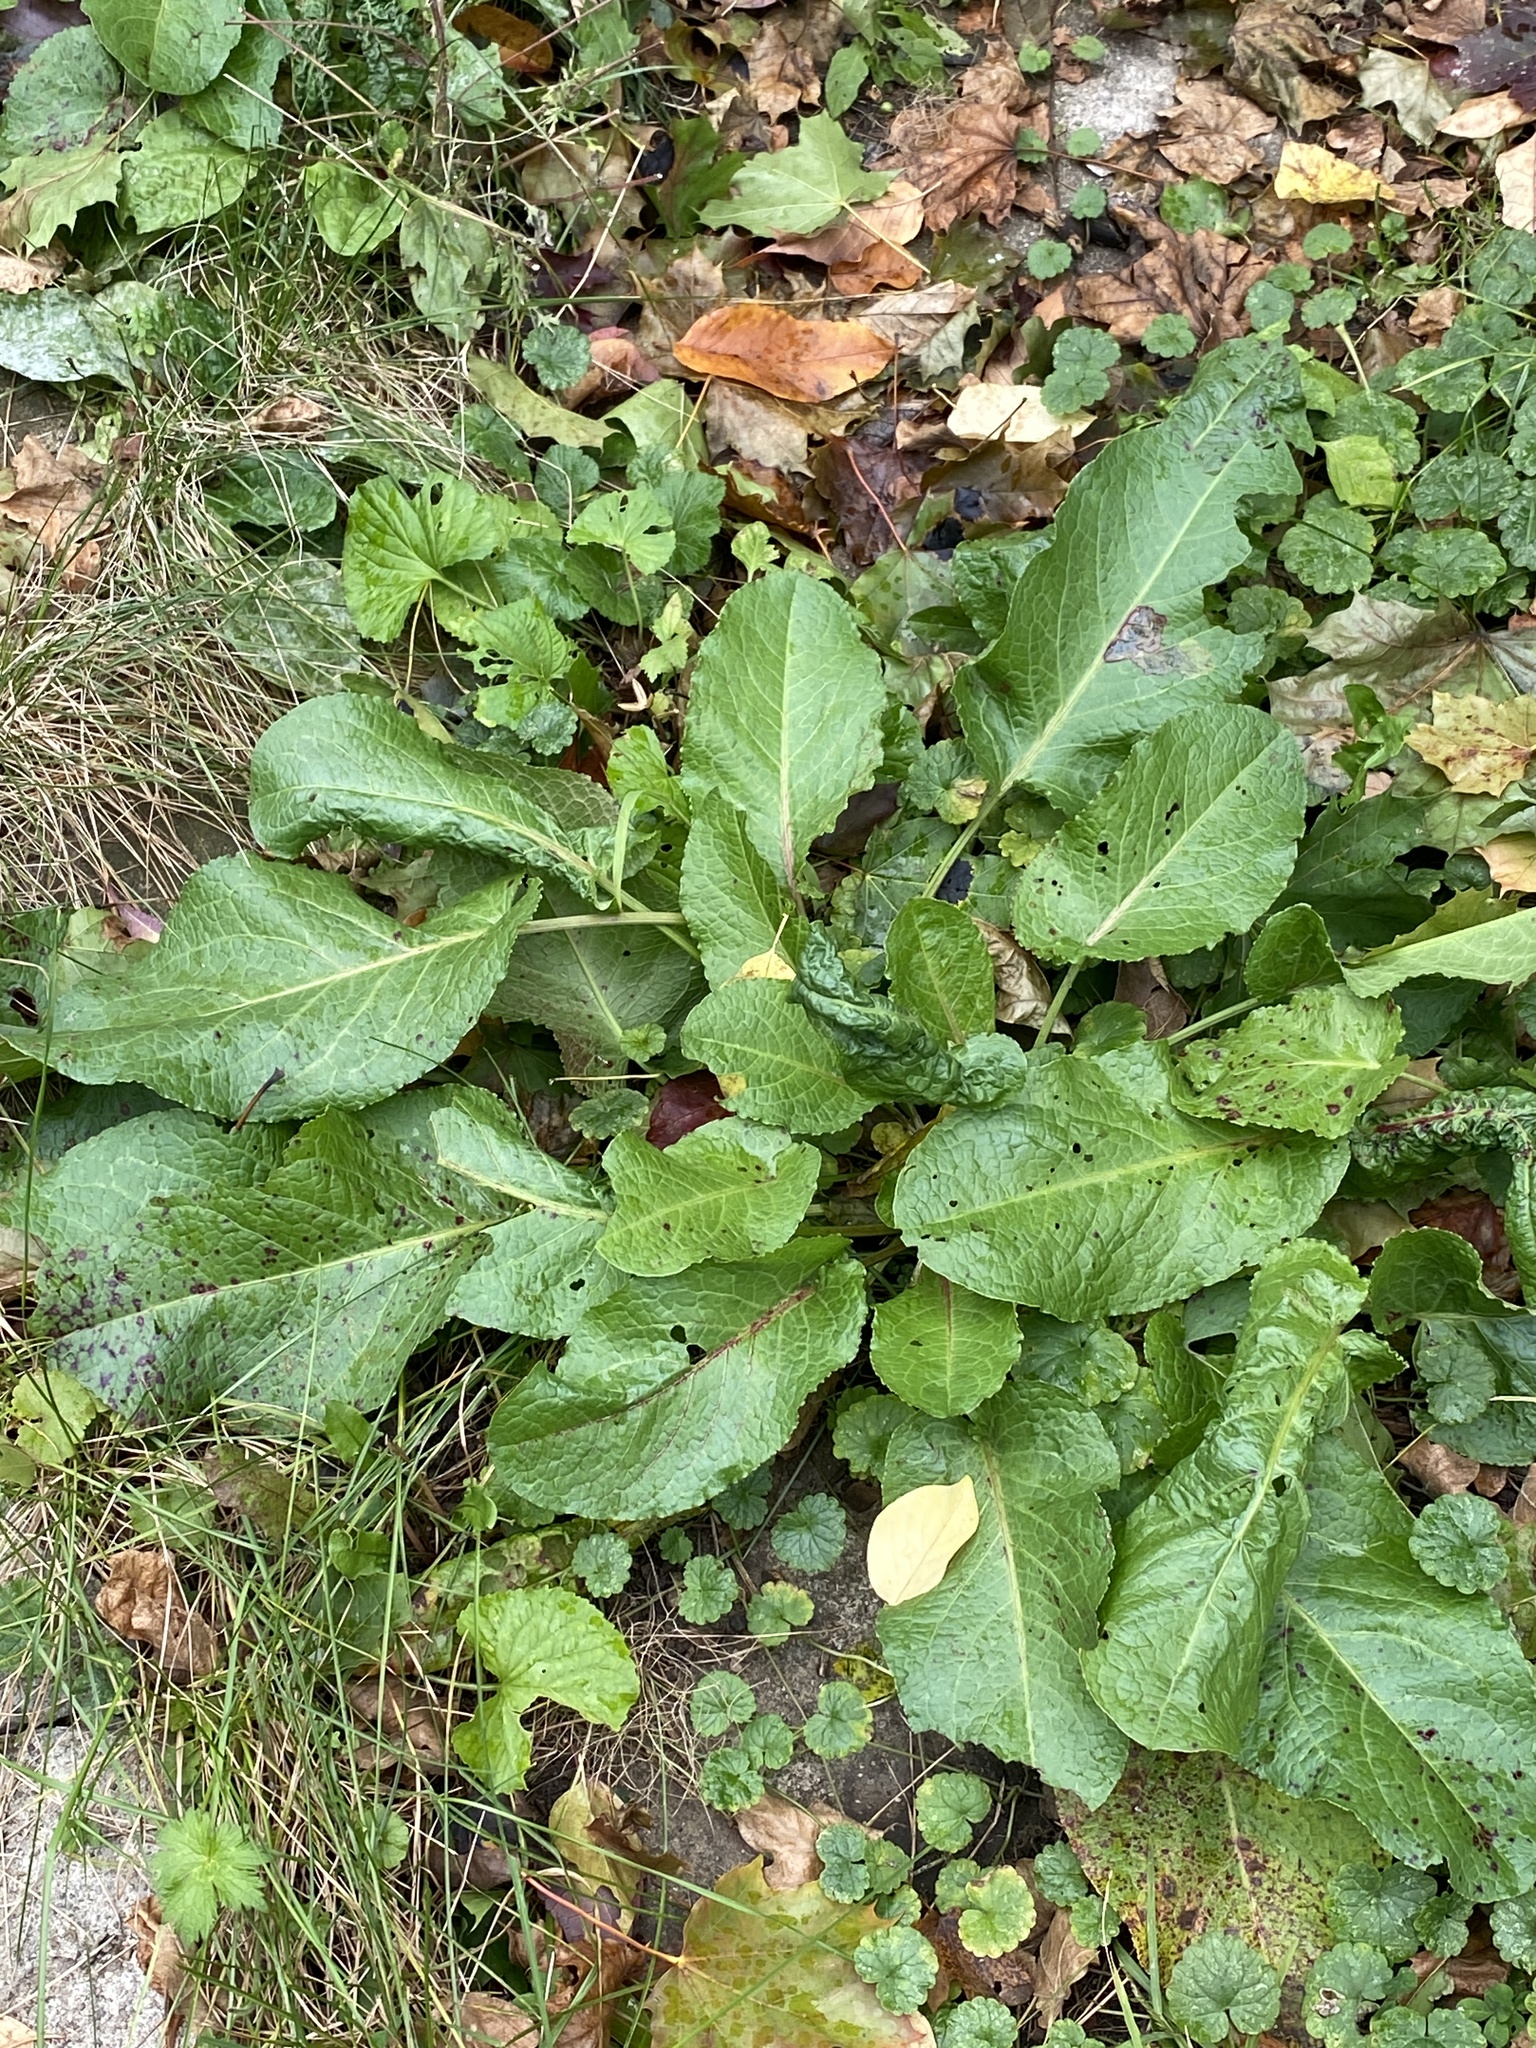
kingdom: Plantae
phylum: Tracheophyta
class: Magnoliopsida
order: Caryophyllales
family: Polygonaceae
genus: Rumex
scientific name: Rumex obtusifolius
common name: Bitter dock
